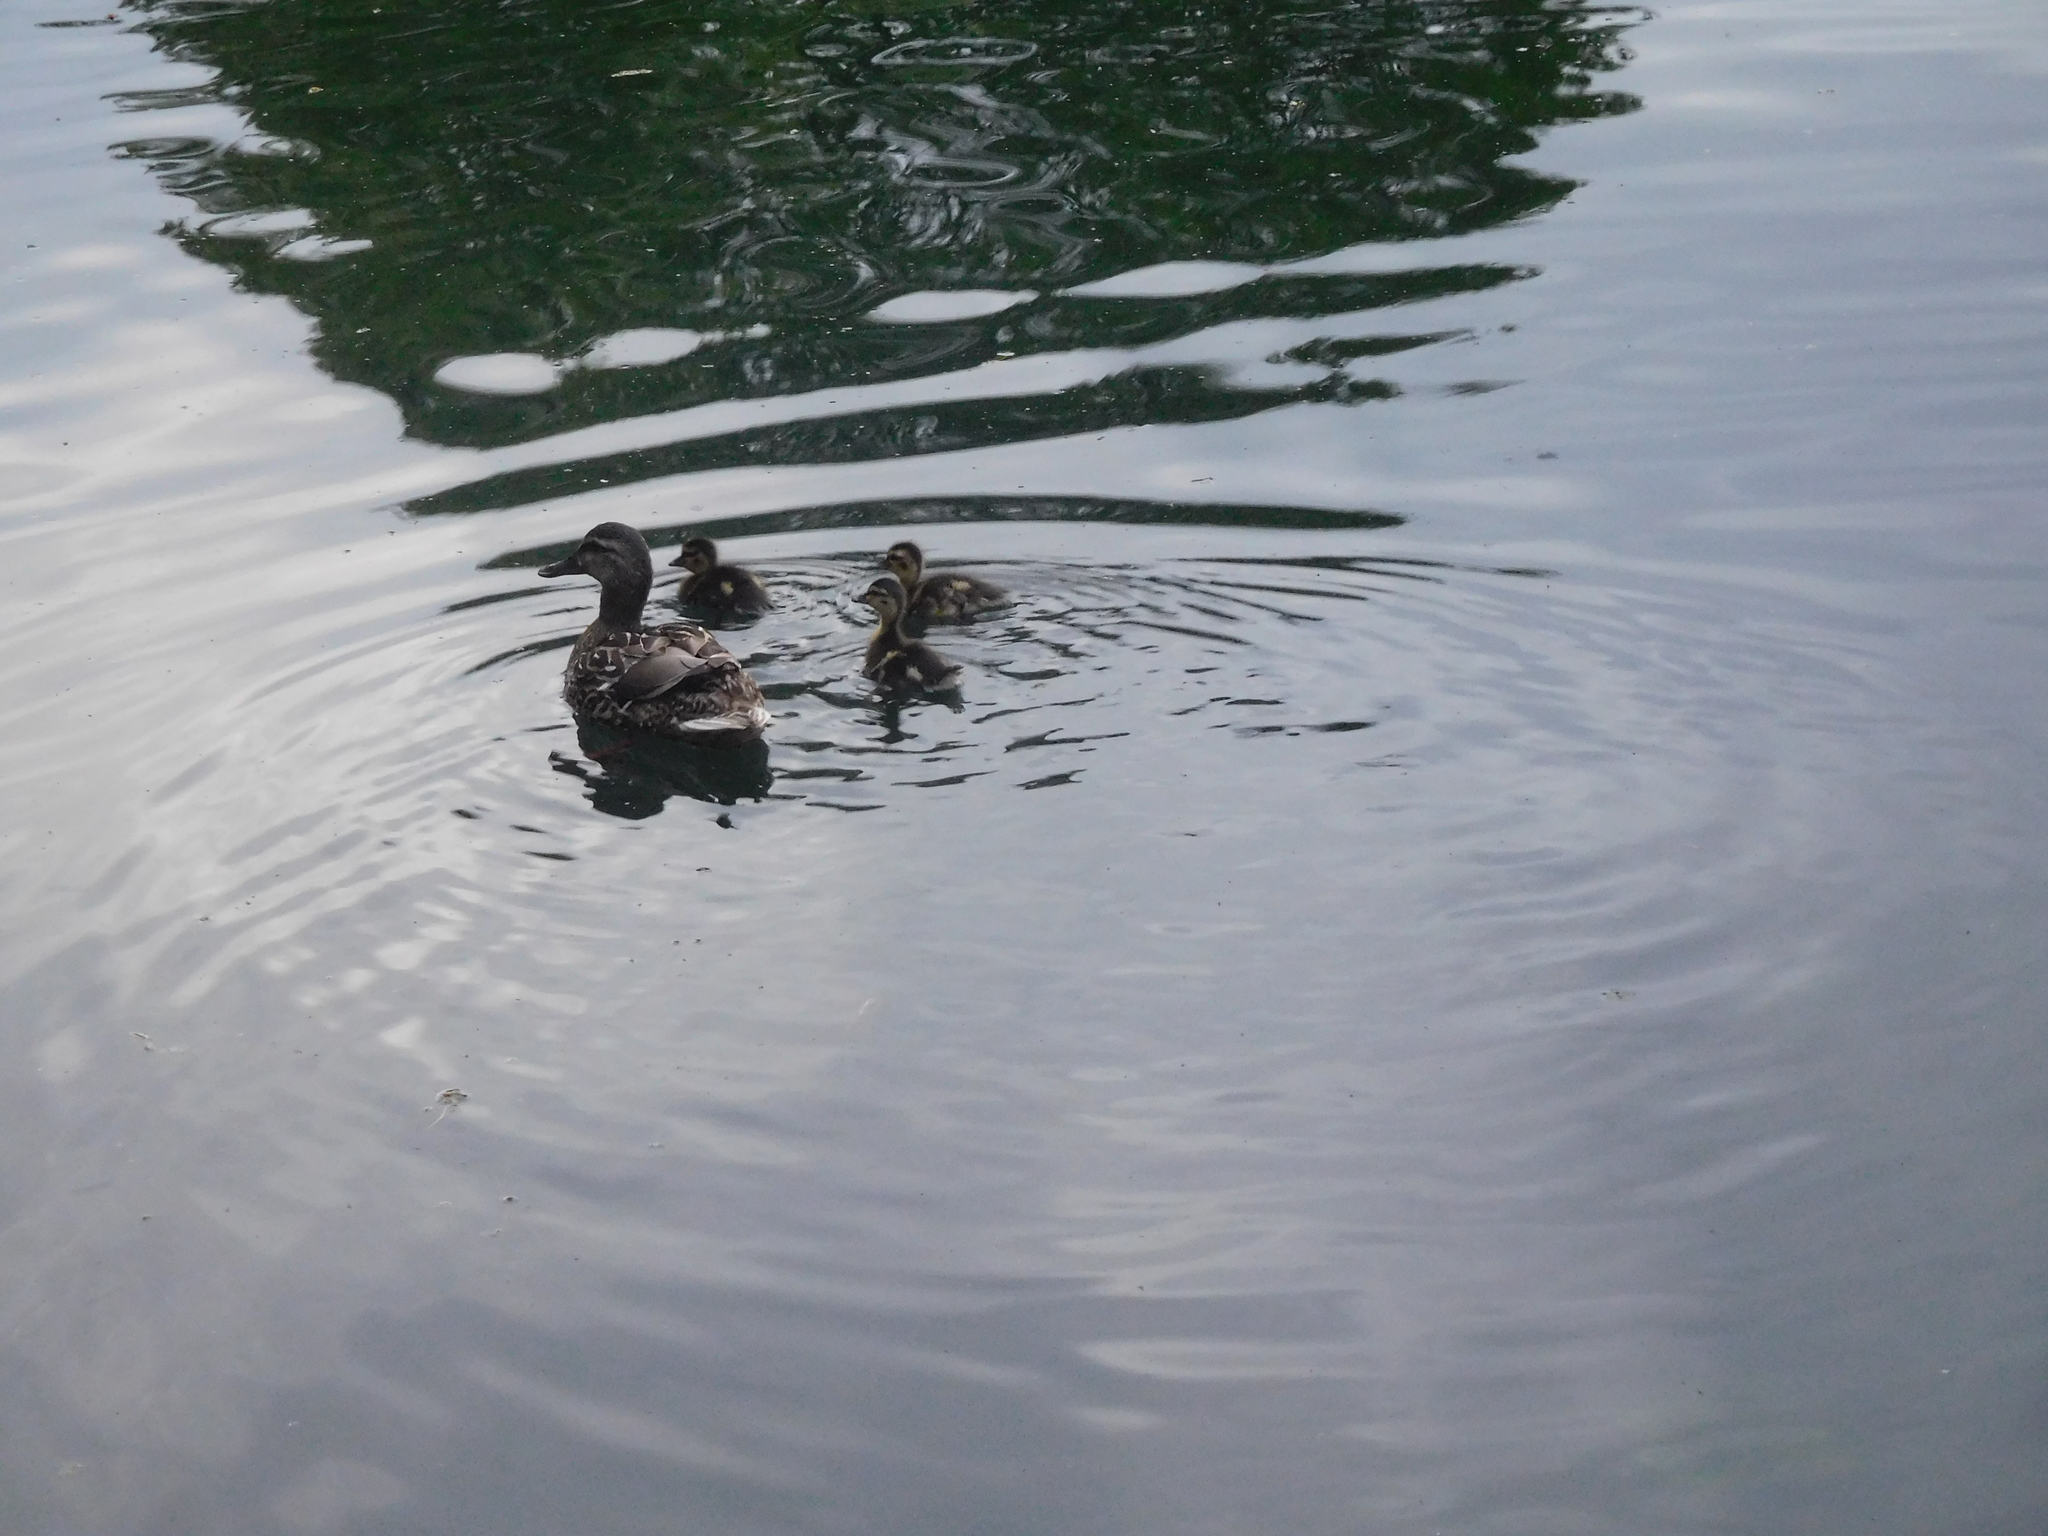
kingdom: Animalia
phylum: Chordata
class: Aves
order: Anseriformes
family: Anatidae
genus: Anas
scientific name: Anas platyrhynchos
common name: Mallard
